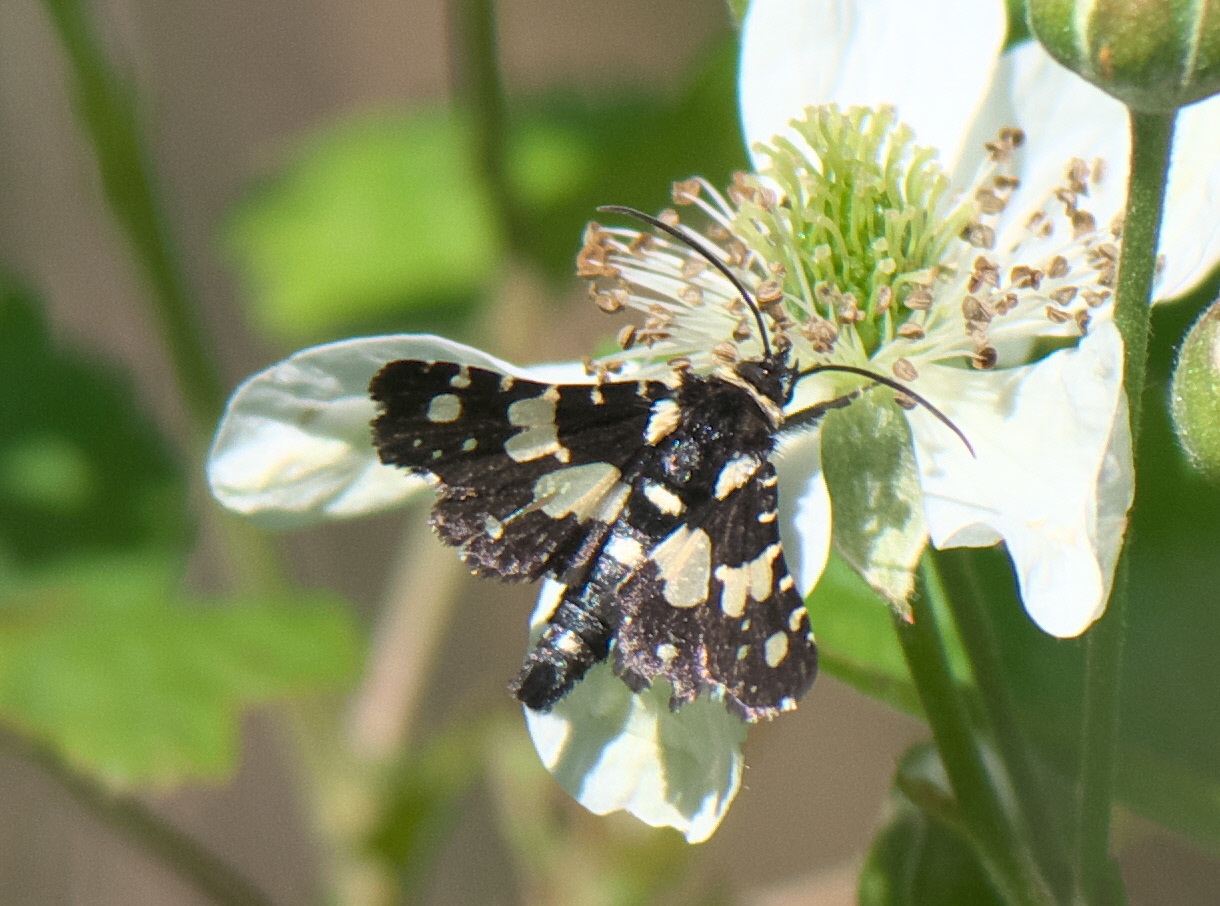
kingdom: Animalia
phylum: Arthropoda
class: Insecta
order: Lepidoptera
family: Thyrididae
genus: Pseudothyris
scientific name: Pseudothyris sepulchralis
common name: Mournful thyris moth
